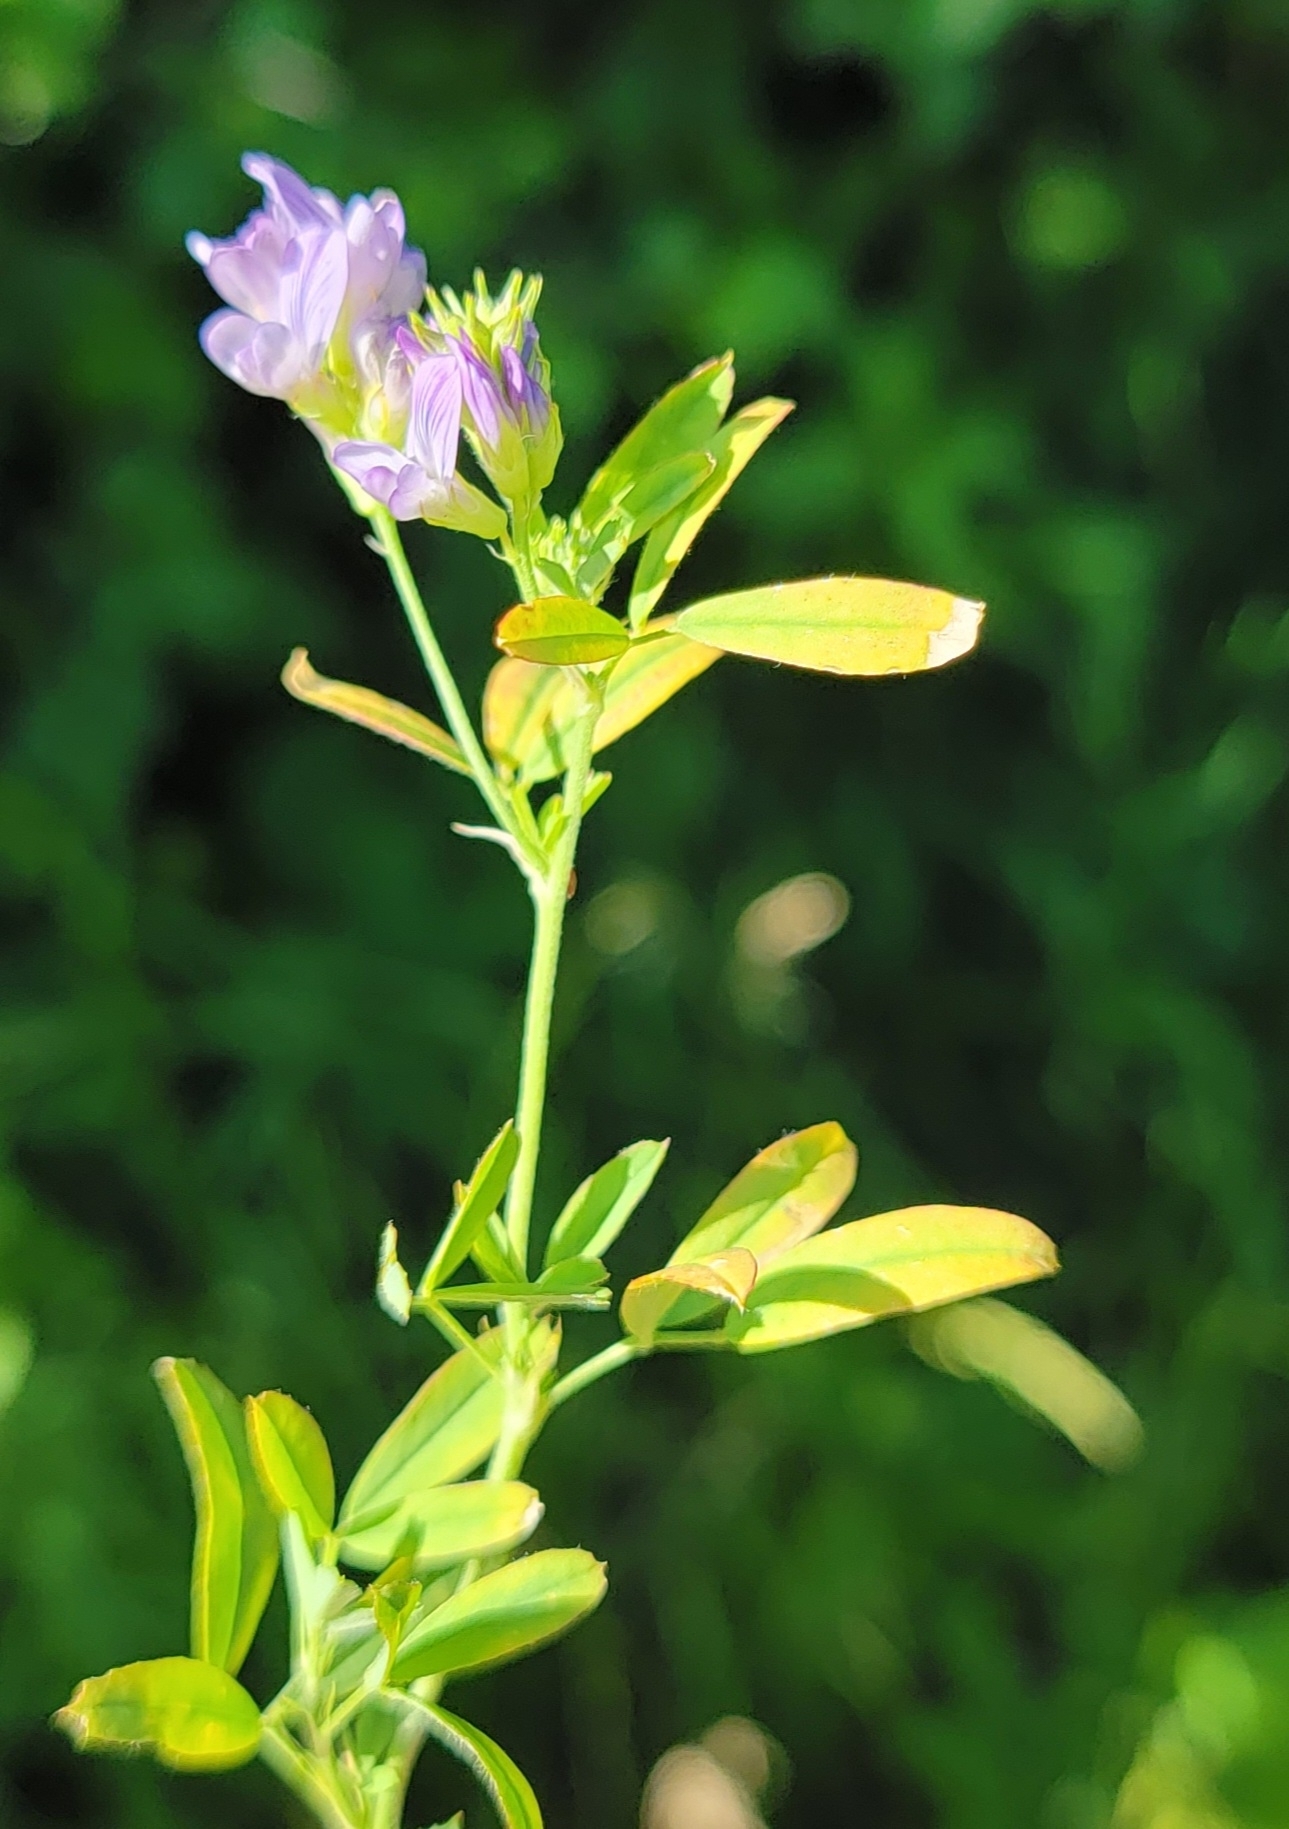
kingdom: Plantae
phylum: Tracheophyta
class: Magnoliopsida
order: Fabales
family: Fabaceae
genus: Medicago
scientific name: Medicago sativa
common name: Alfalfa
